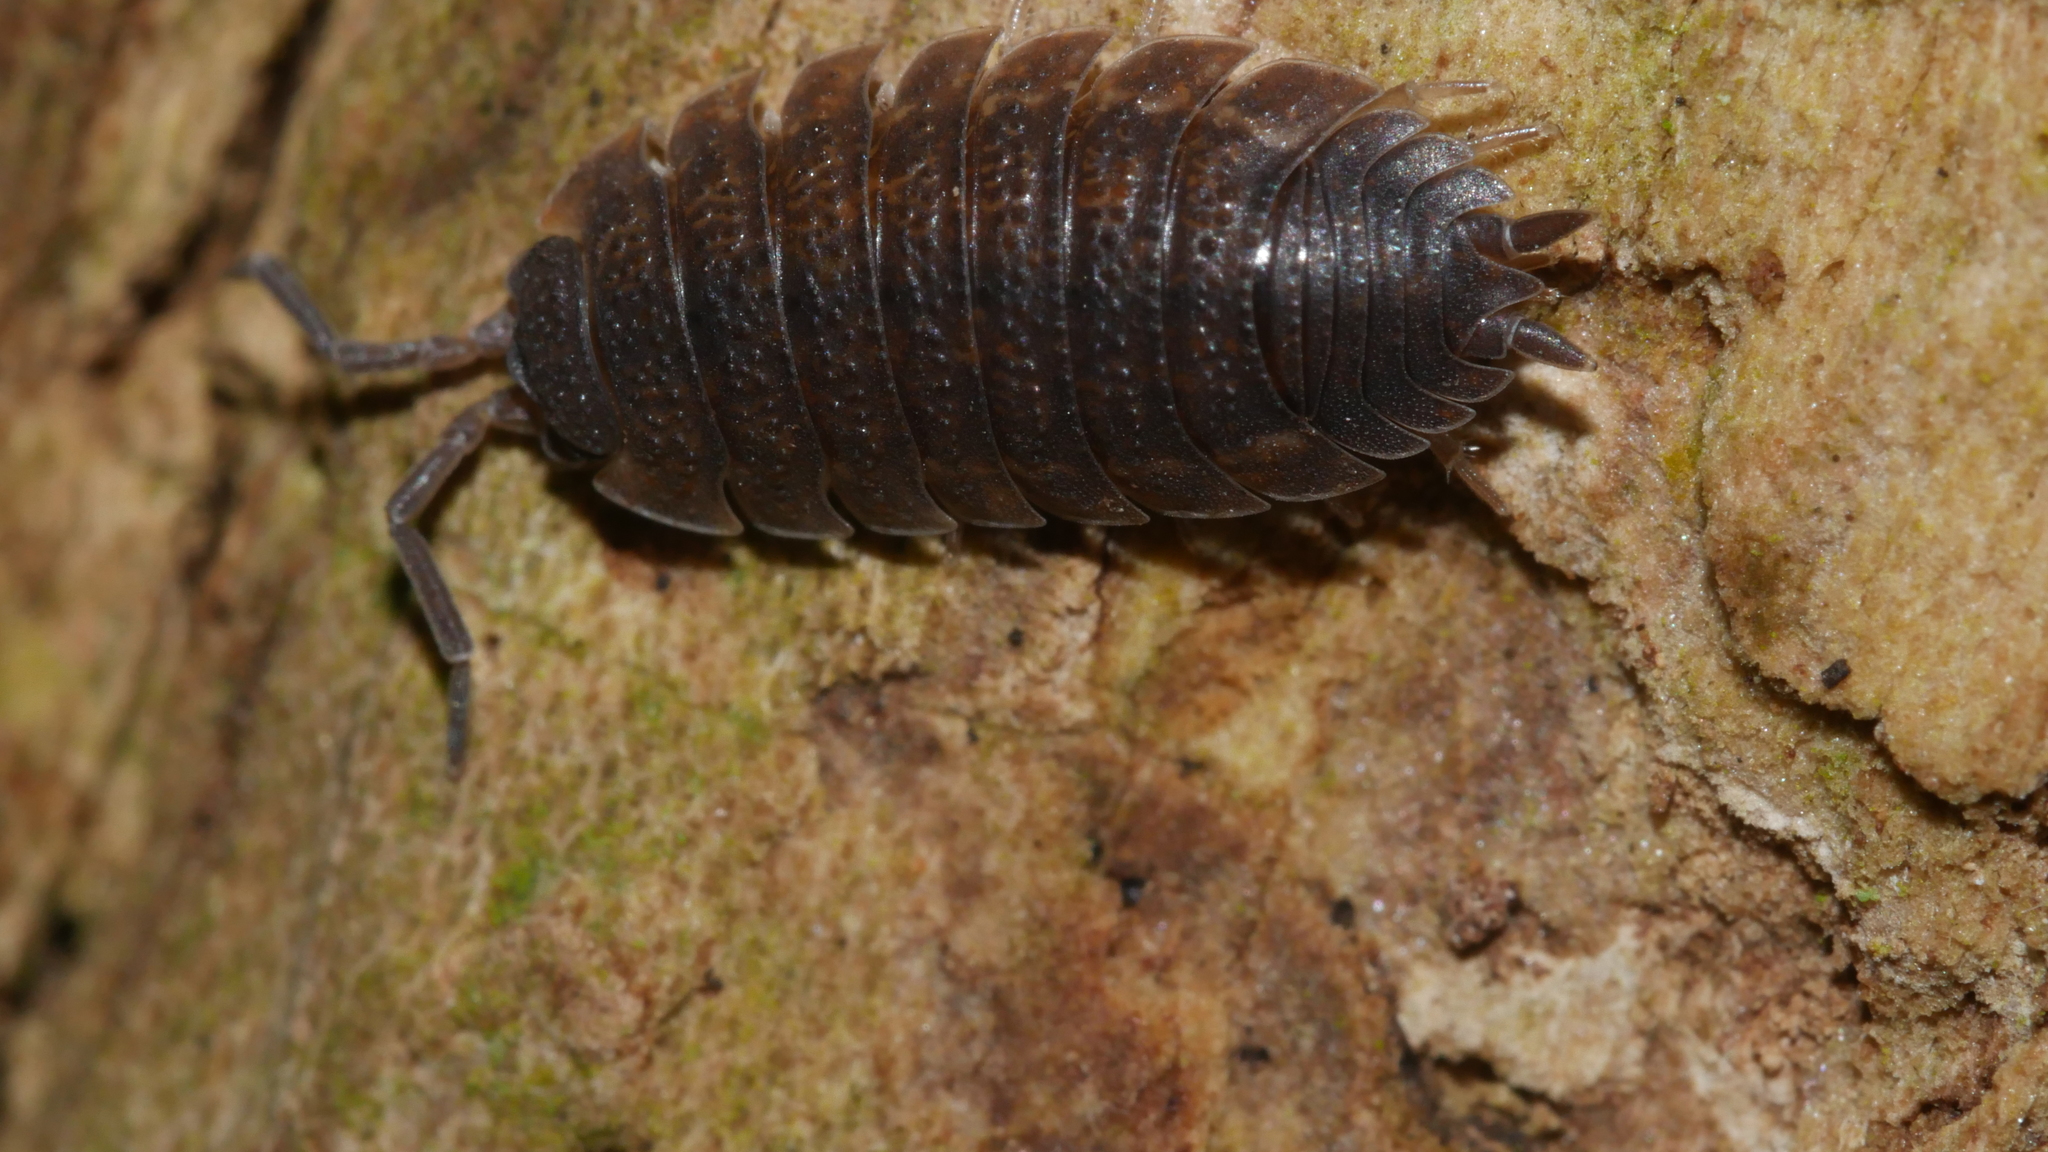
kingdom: Animalia
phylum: Arthropoda
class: Malacostraca
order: Isopoda
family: Porcellionidae
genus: Porcellio
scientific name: Porcellio scaber
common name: Common rough woodlouse
